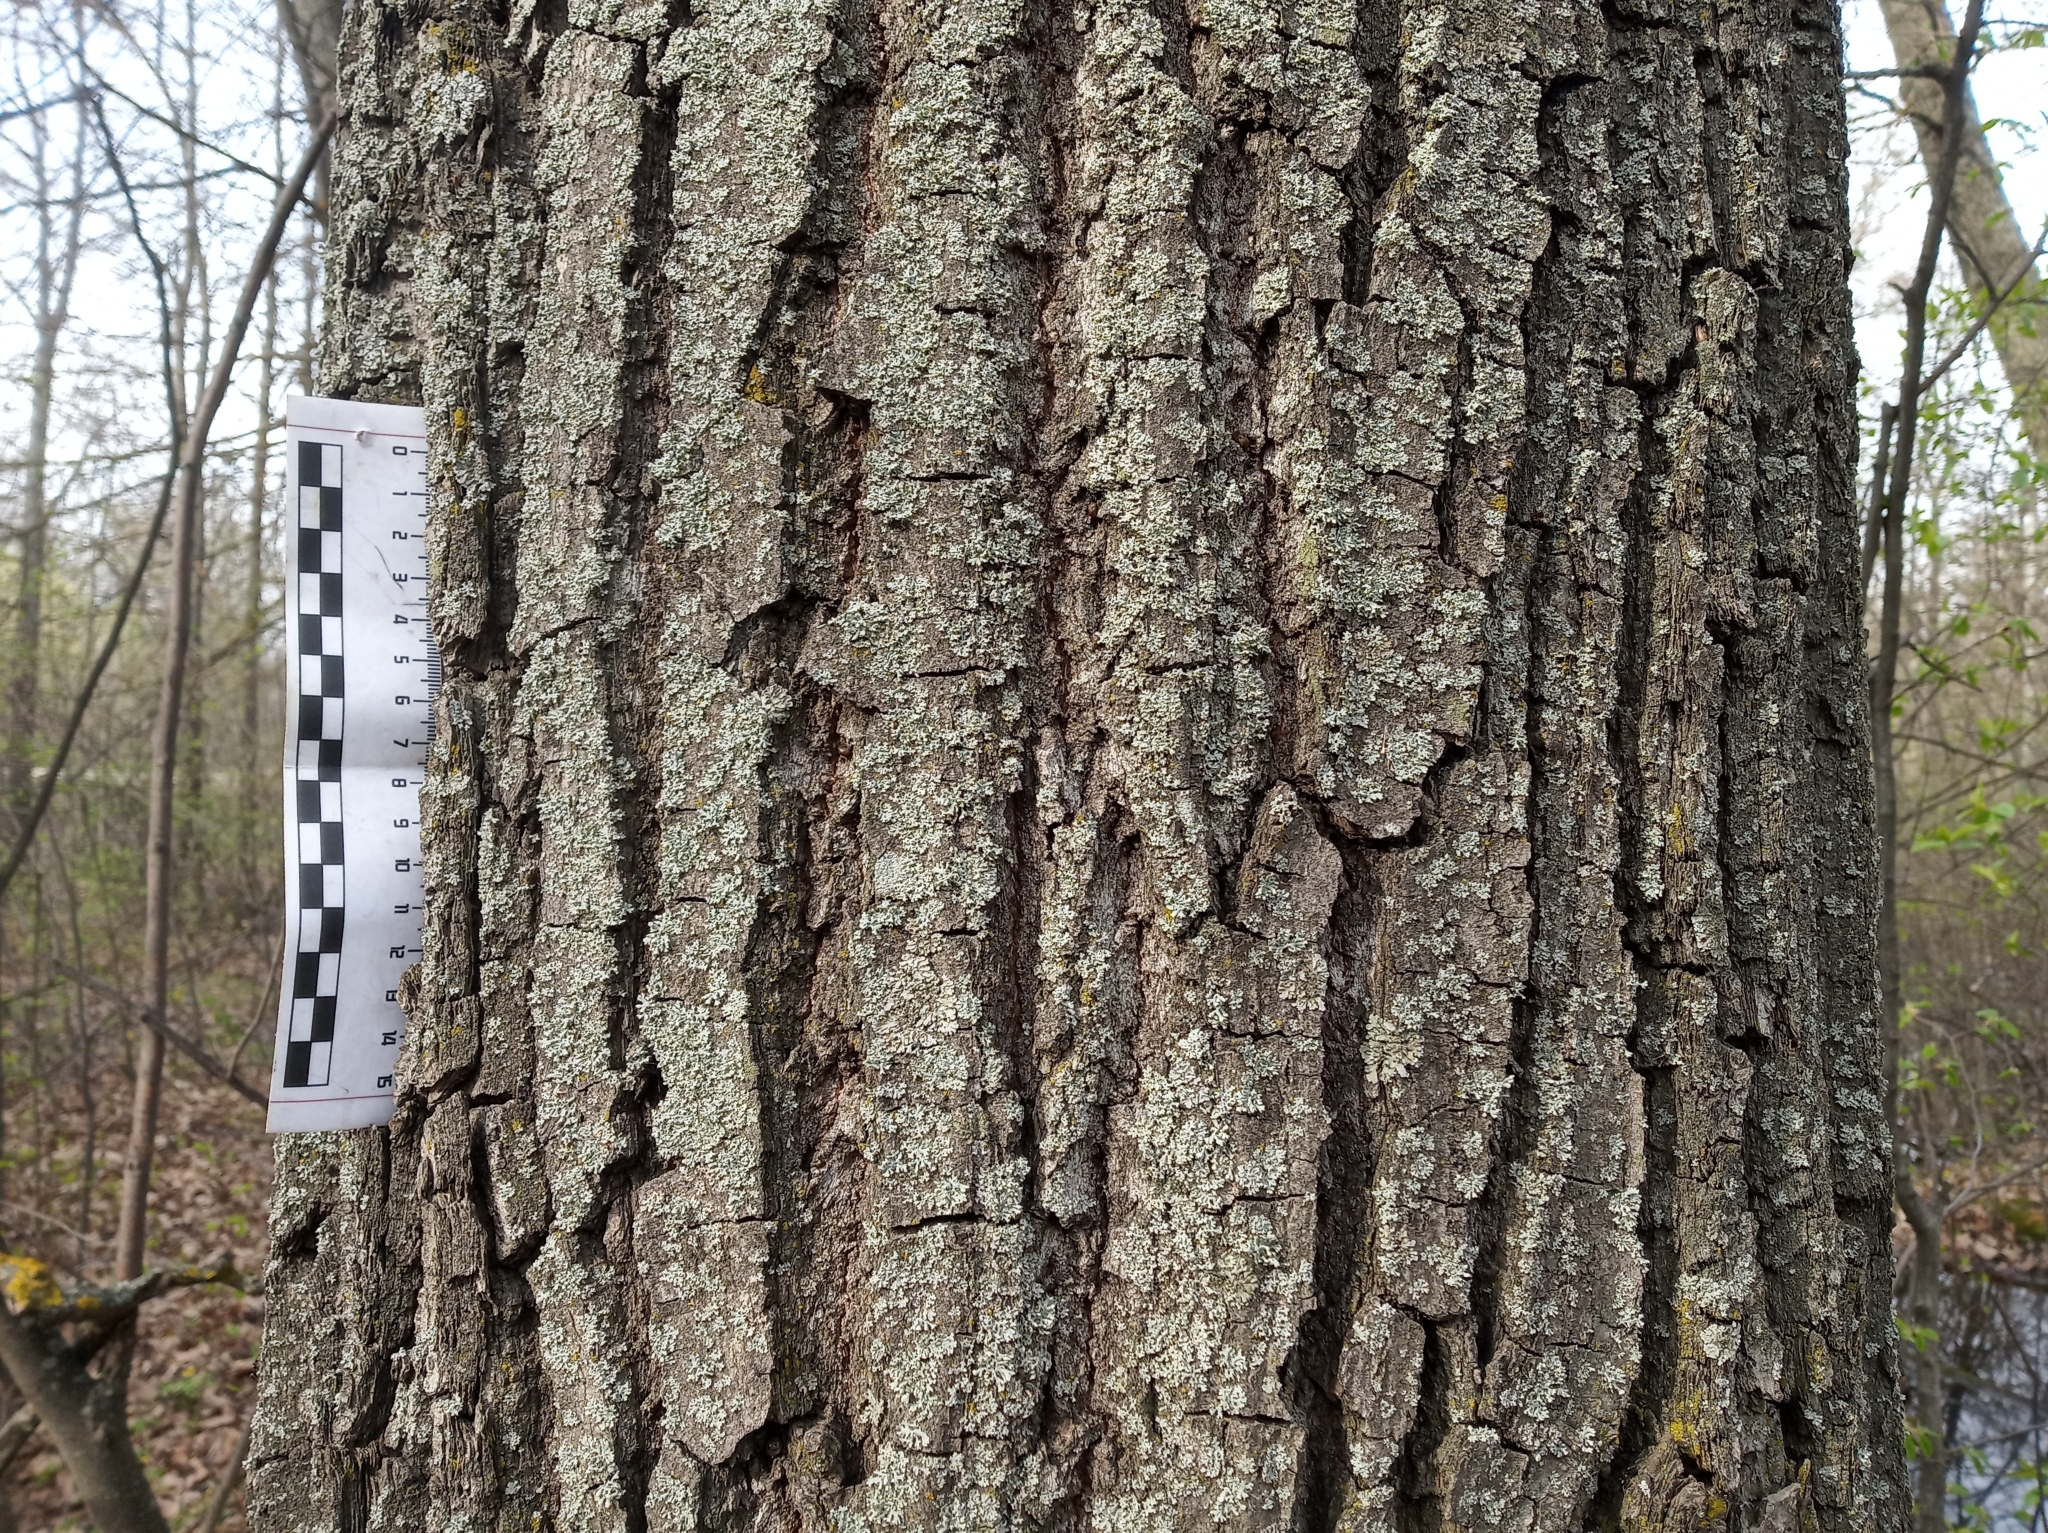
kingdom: Plantae
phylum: Tracheophyta
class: Magnoliopsida
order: Fagales
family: Fagaceae
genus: Quercus
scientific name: Quercus robur
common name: Pedunculate oak
